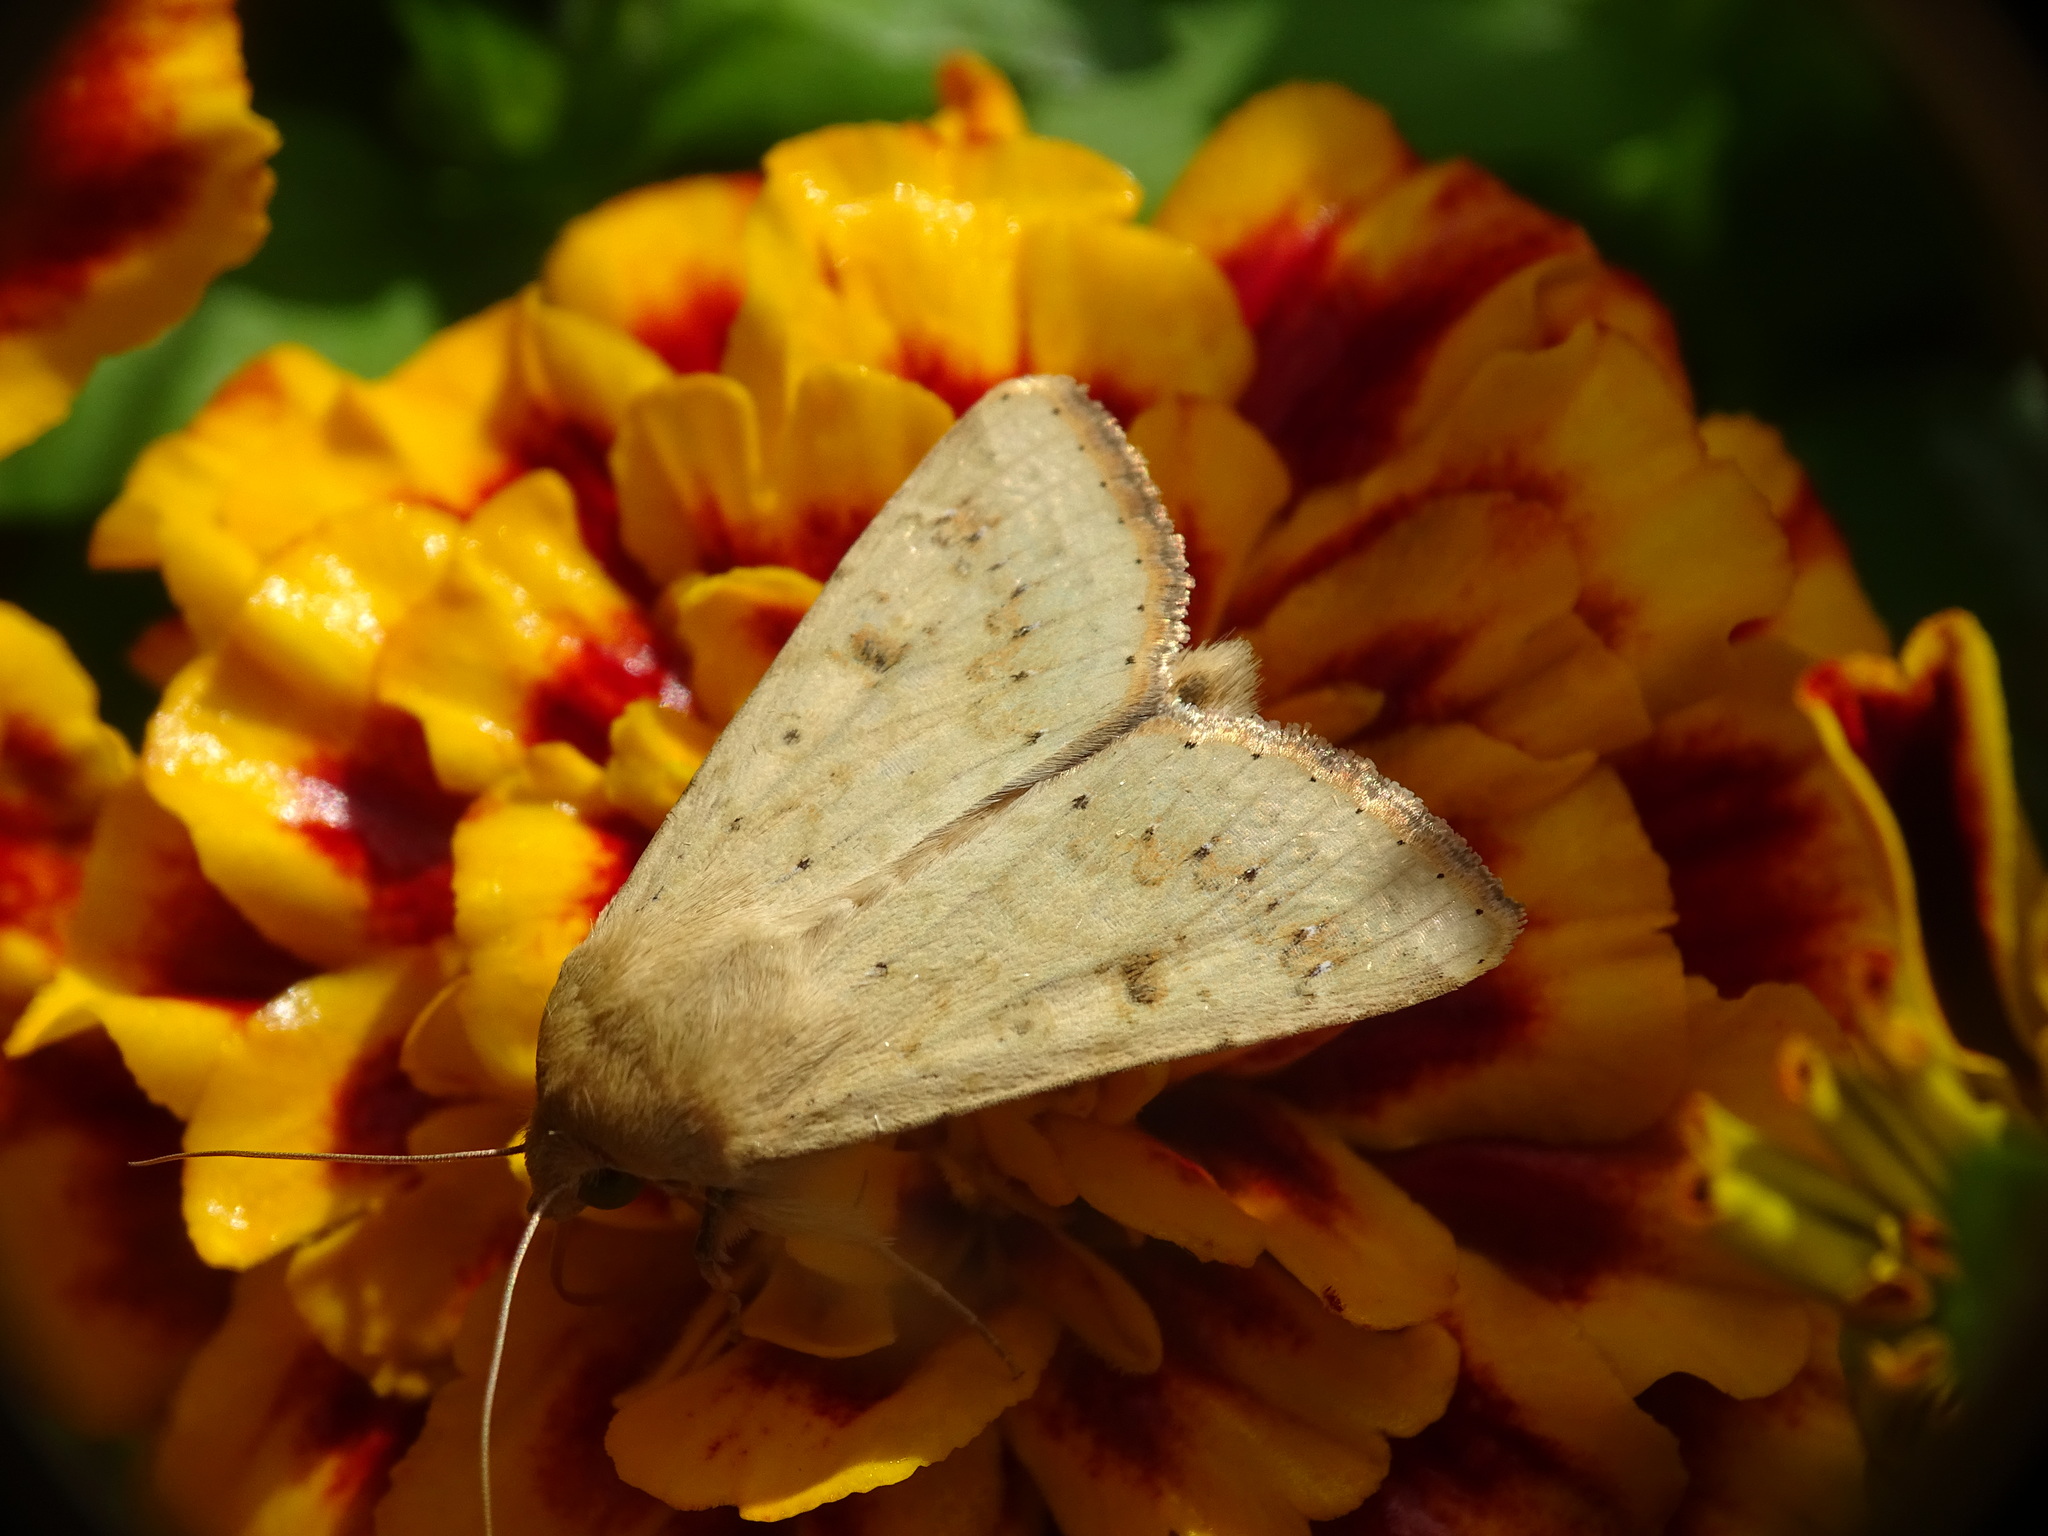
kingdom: Animalia
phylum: Arthropoda
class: Insecta
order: Lepidoptera
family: Noctuidae
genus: Helicoverpa
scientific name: Helicoverpa zea
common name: Bollworm
